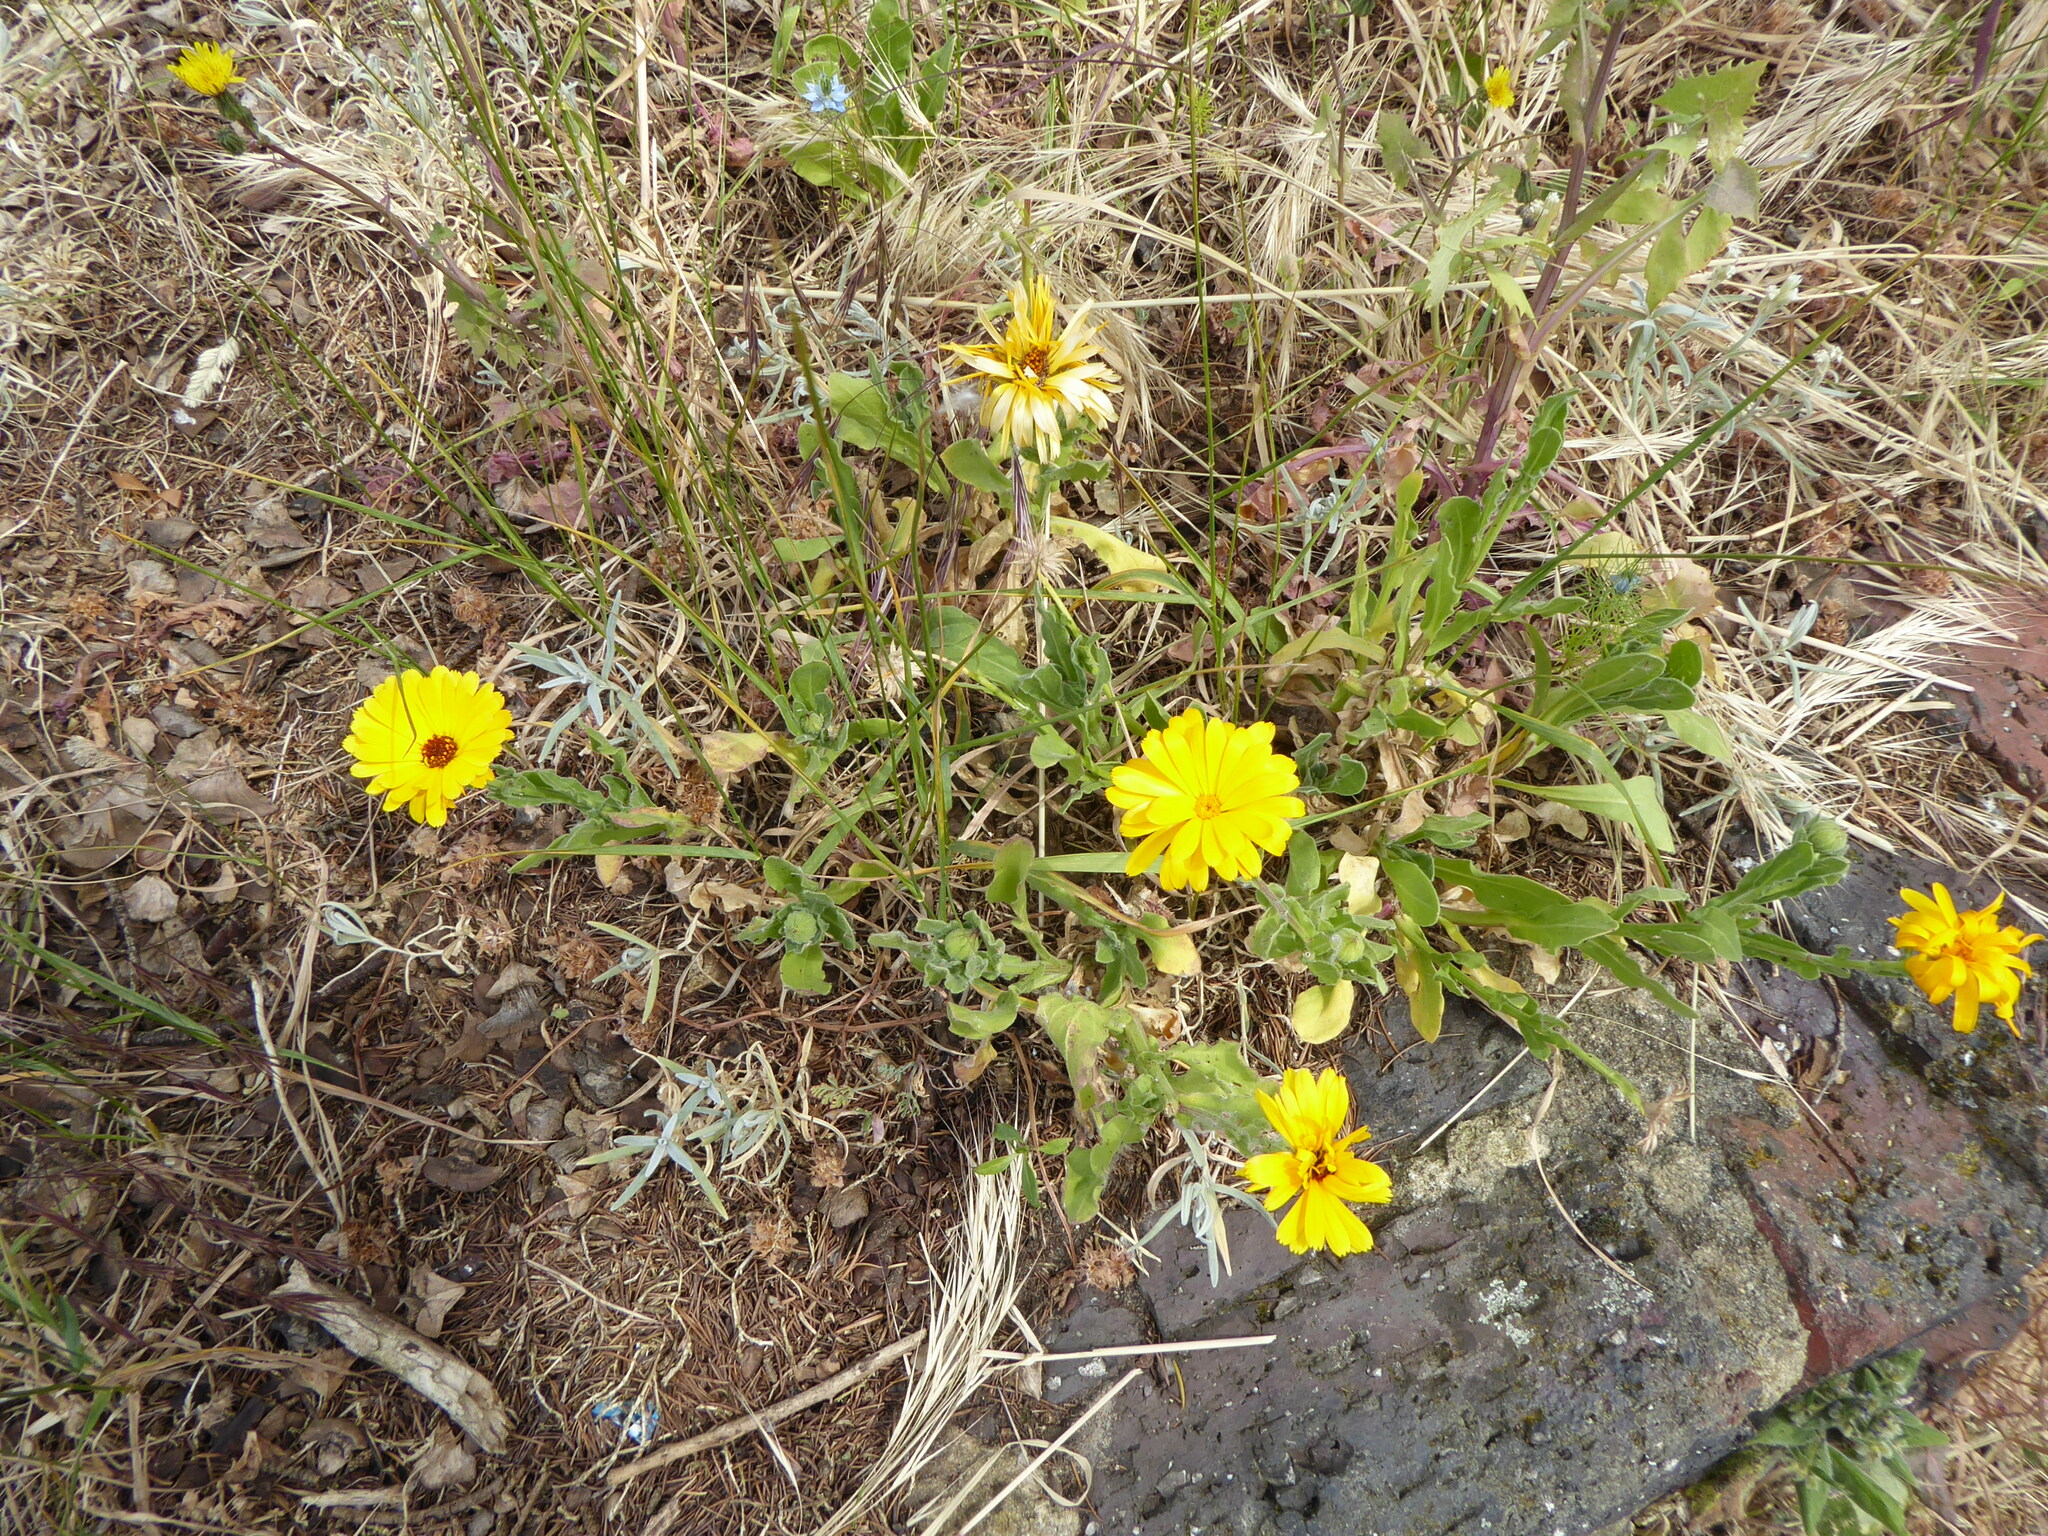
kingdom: Plantae
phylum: Tracheophyta
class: Magnoliopsida
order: Asterales
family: Asteraceae
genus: Calendula
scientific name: Calendula officinalis
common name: Pot marigold
